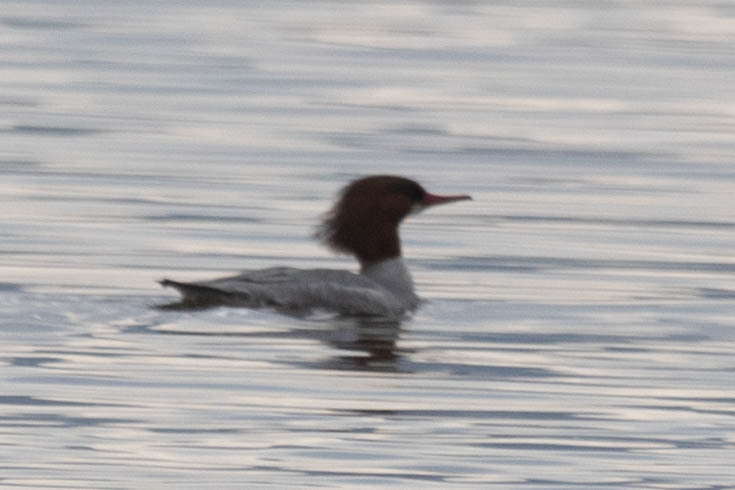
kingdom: Animalia
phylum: Chordata
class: Aves
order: Anseriformes
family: Anatidae
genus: Mergus
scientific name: Mergus merganser
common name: Common merganser
